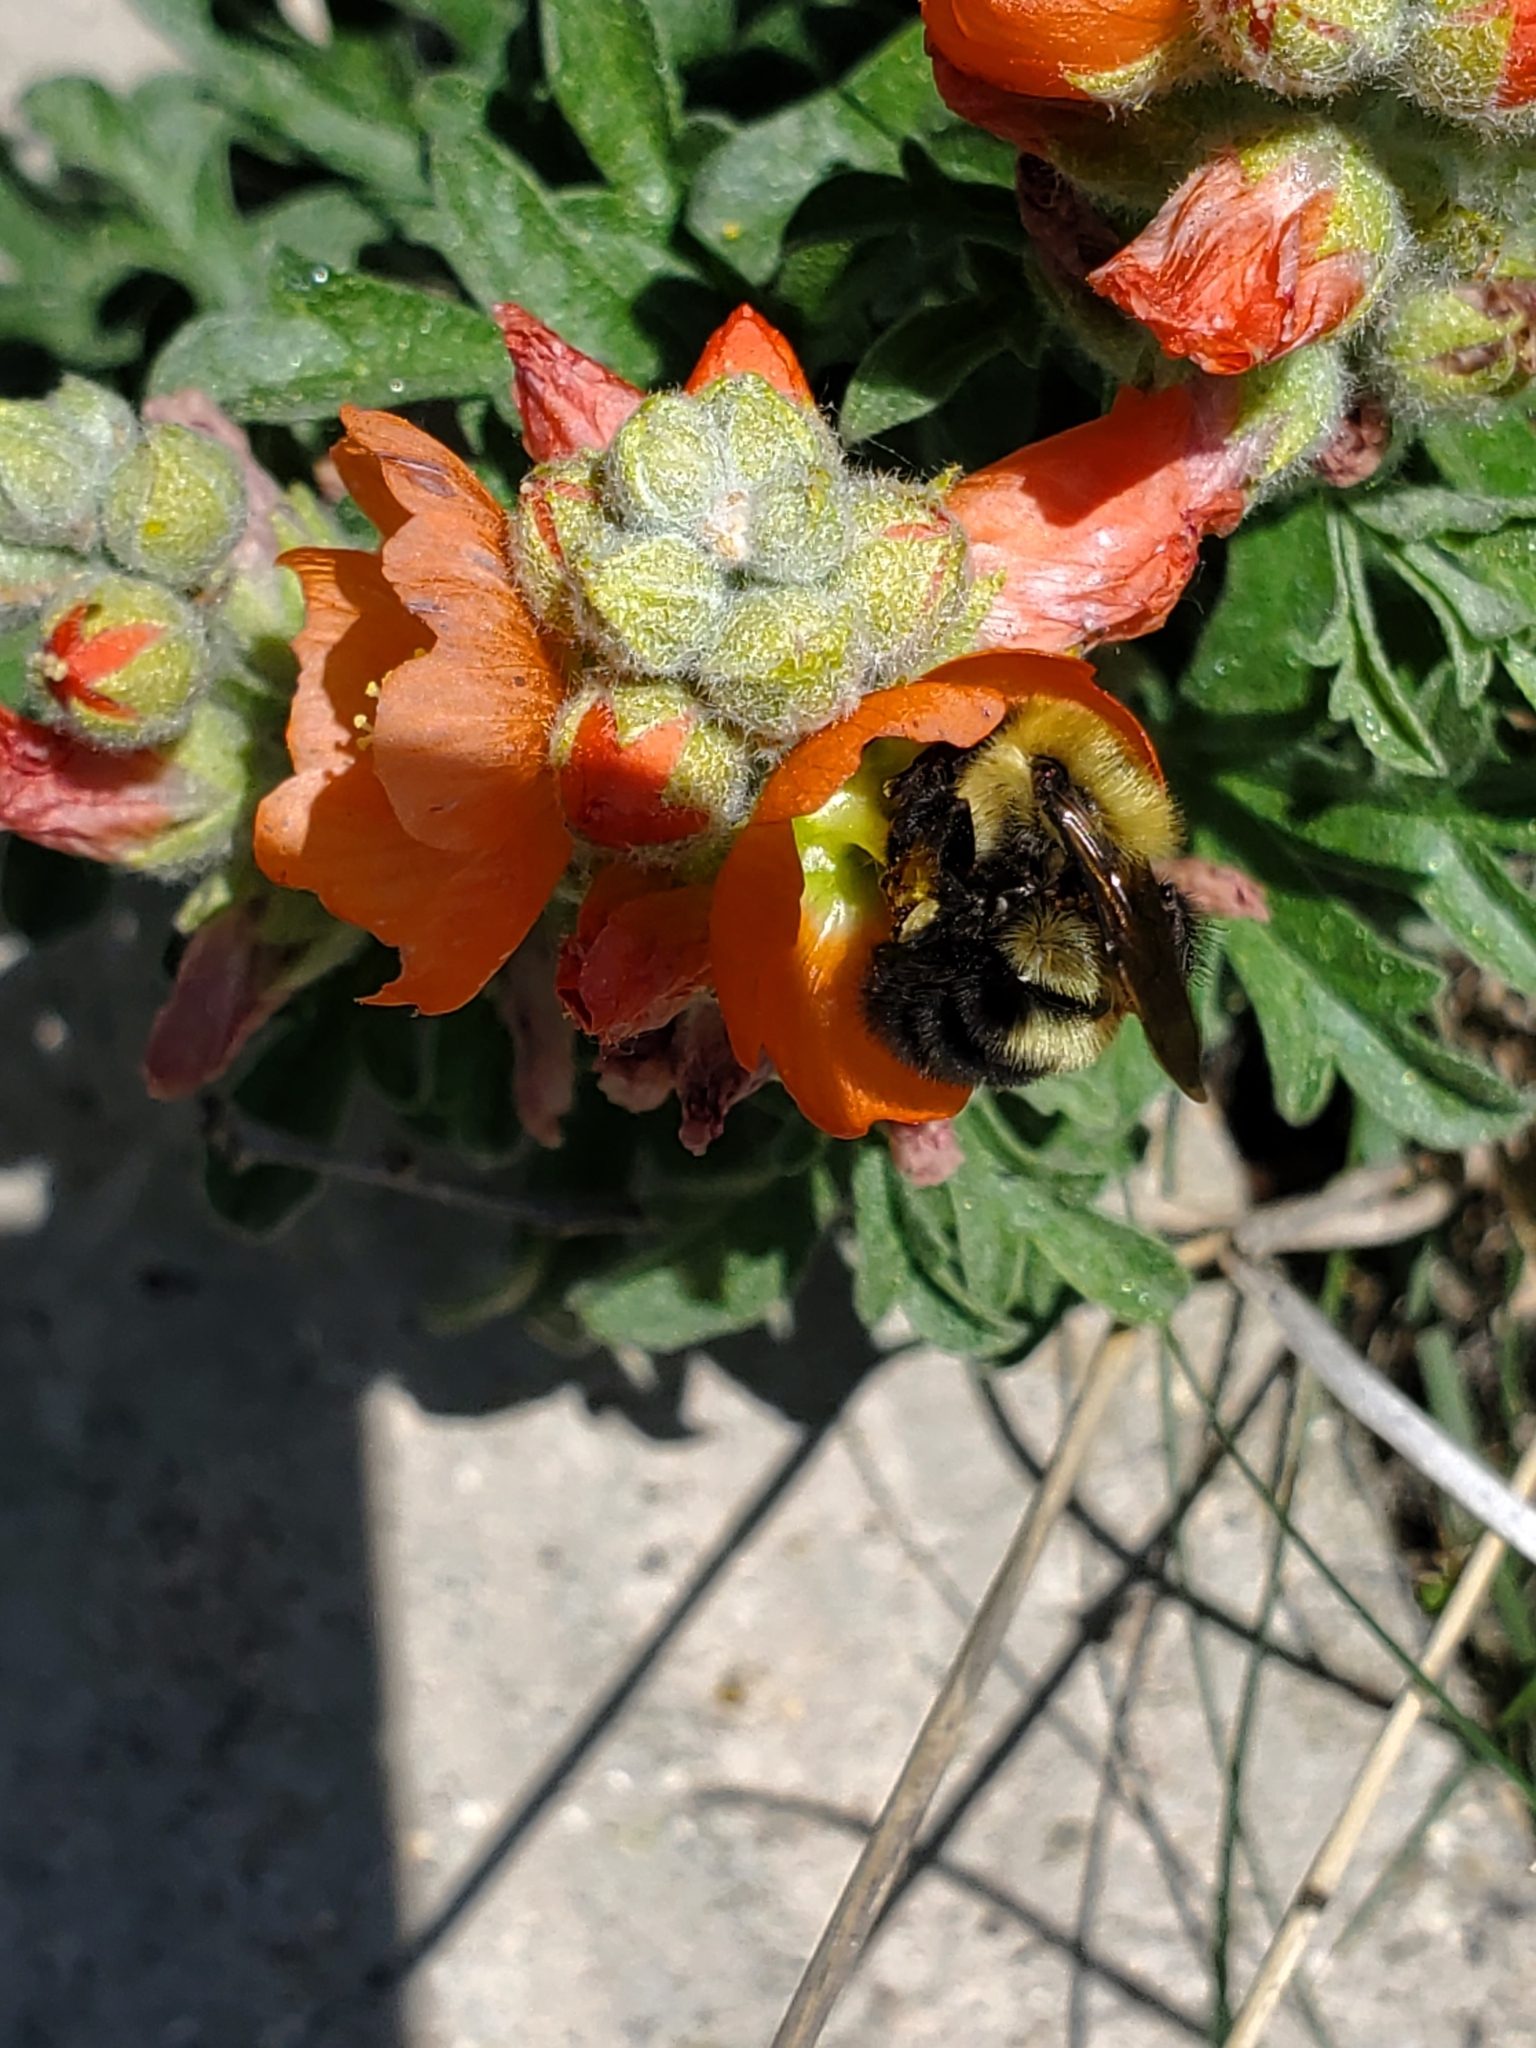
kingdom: Animalia
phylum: Arthropoda
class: Insecta
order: Hymenoptera
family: Apidae
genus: Bombus
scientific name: Bombus bimaculatus
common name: Two-spotted bumble bee
